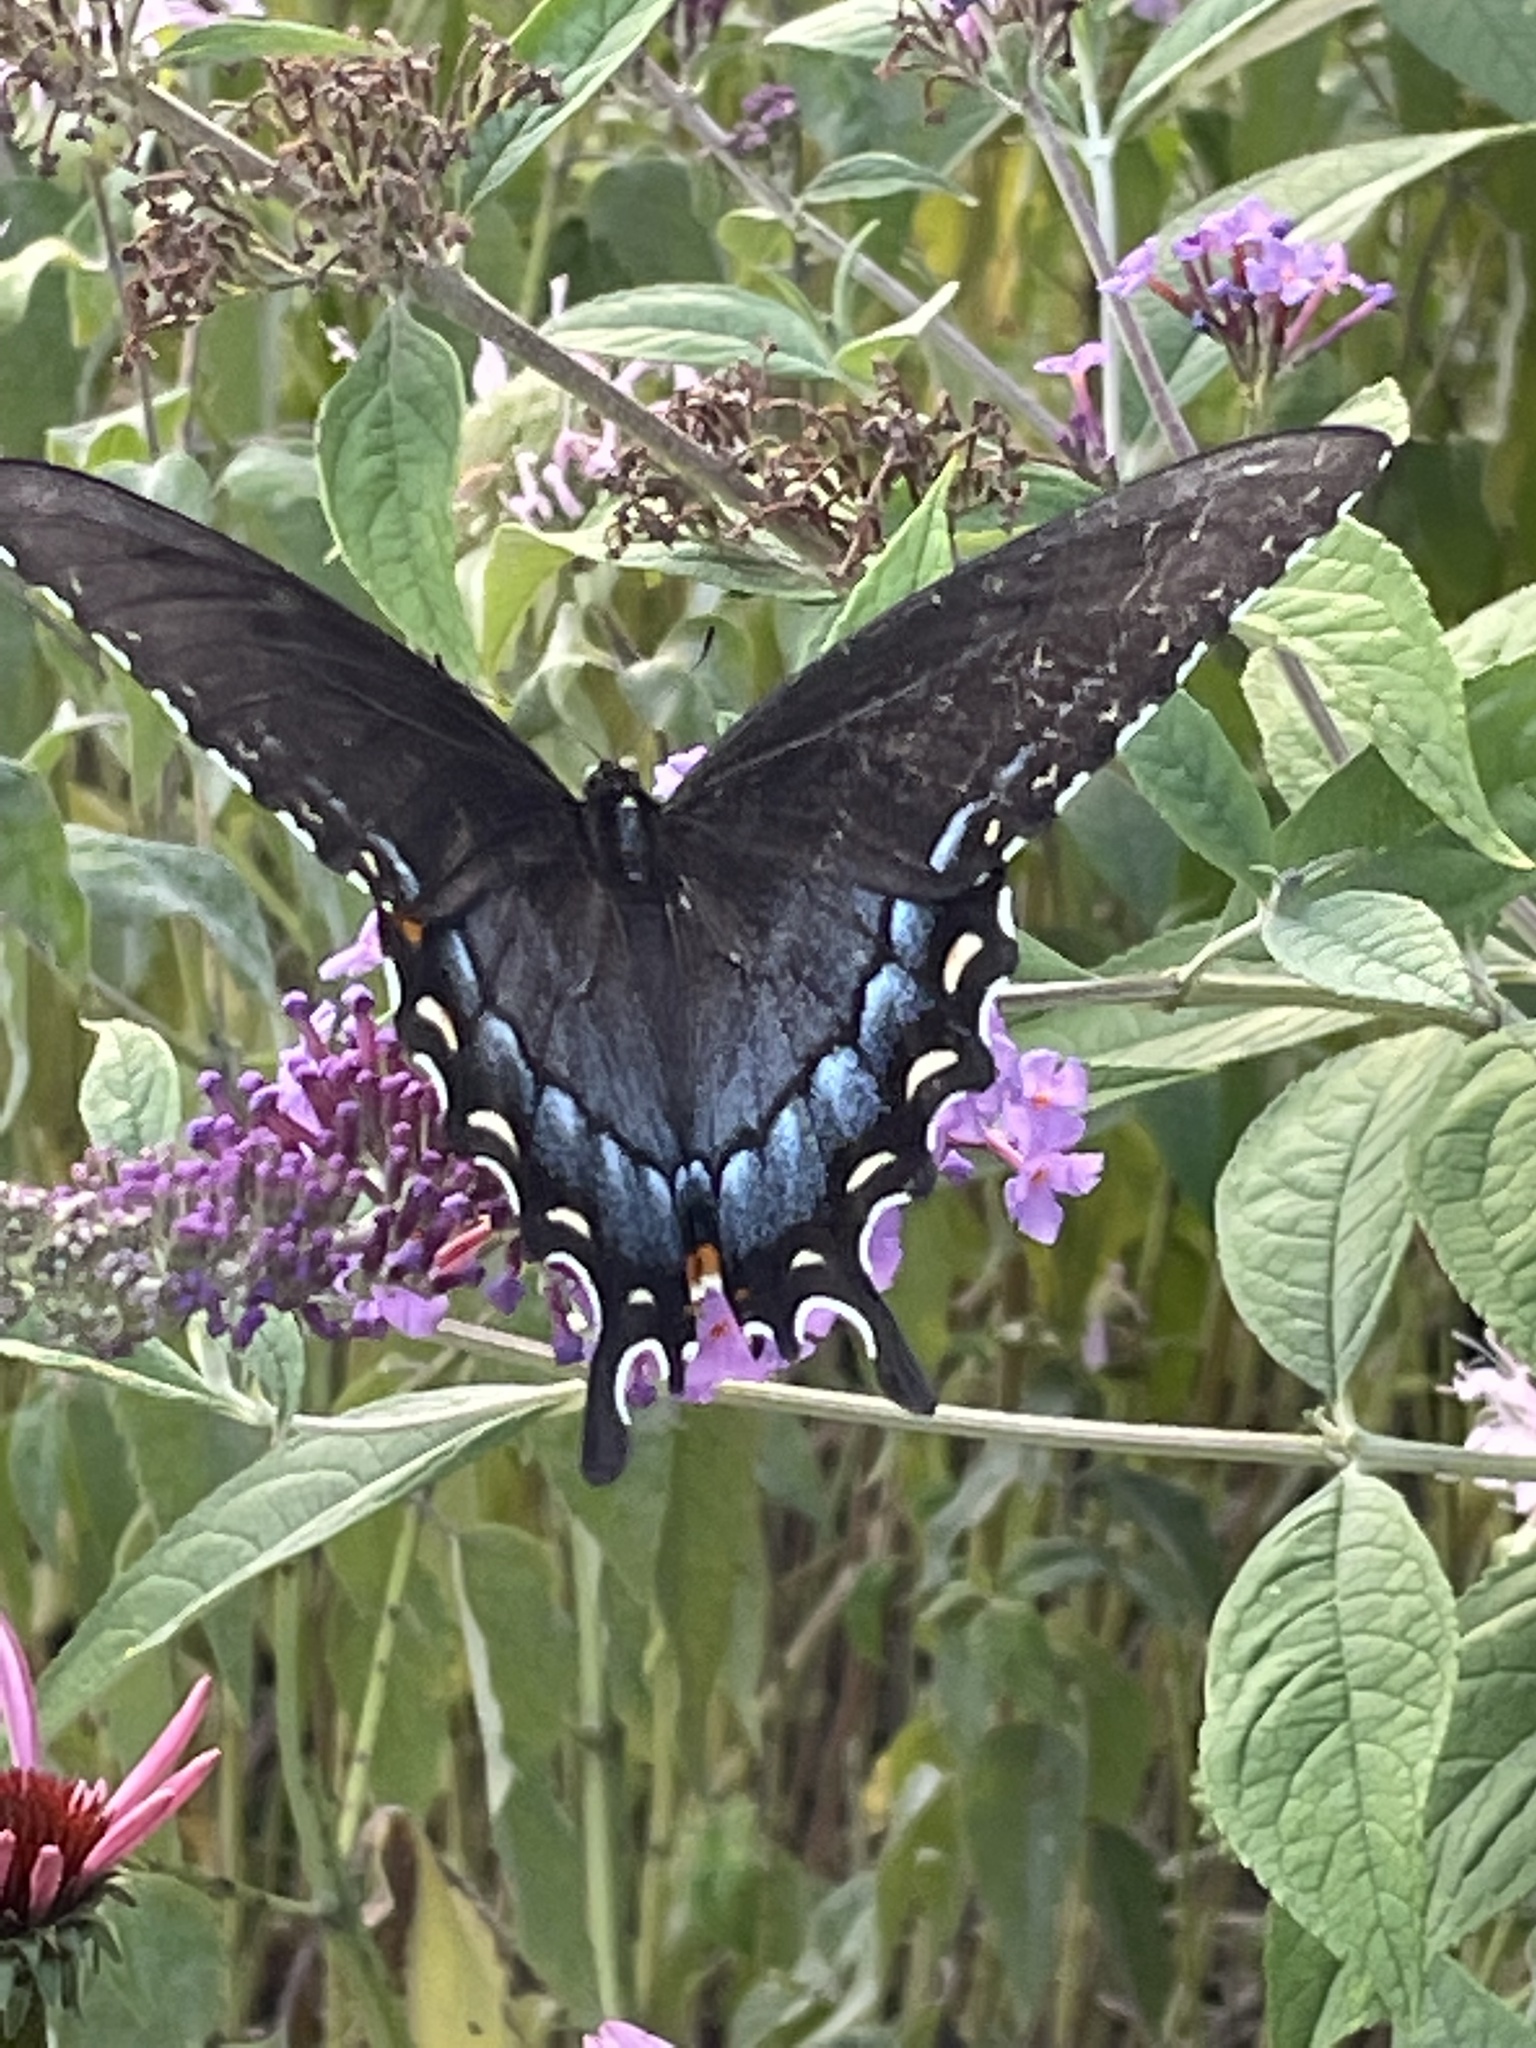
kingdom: Animalia
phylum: Arthropoda
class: Insecta
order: Lepidoptera
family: Papilionidae
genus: Papilio
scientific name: Papilio glaucus
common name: Tiger swallowtail
